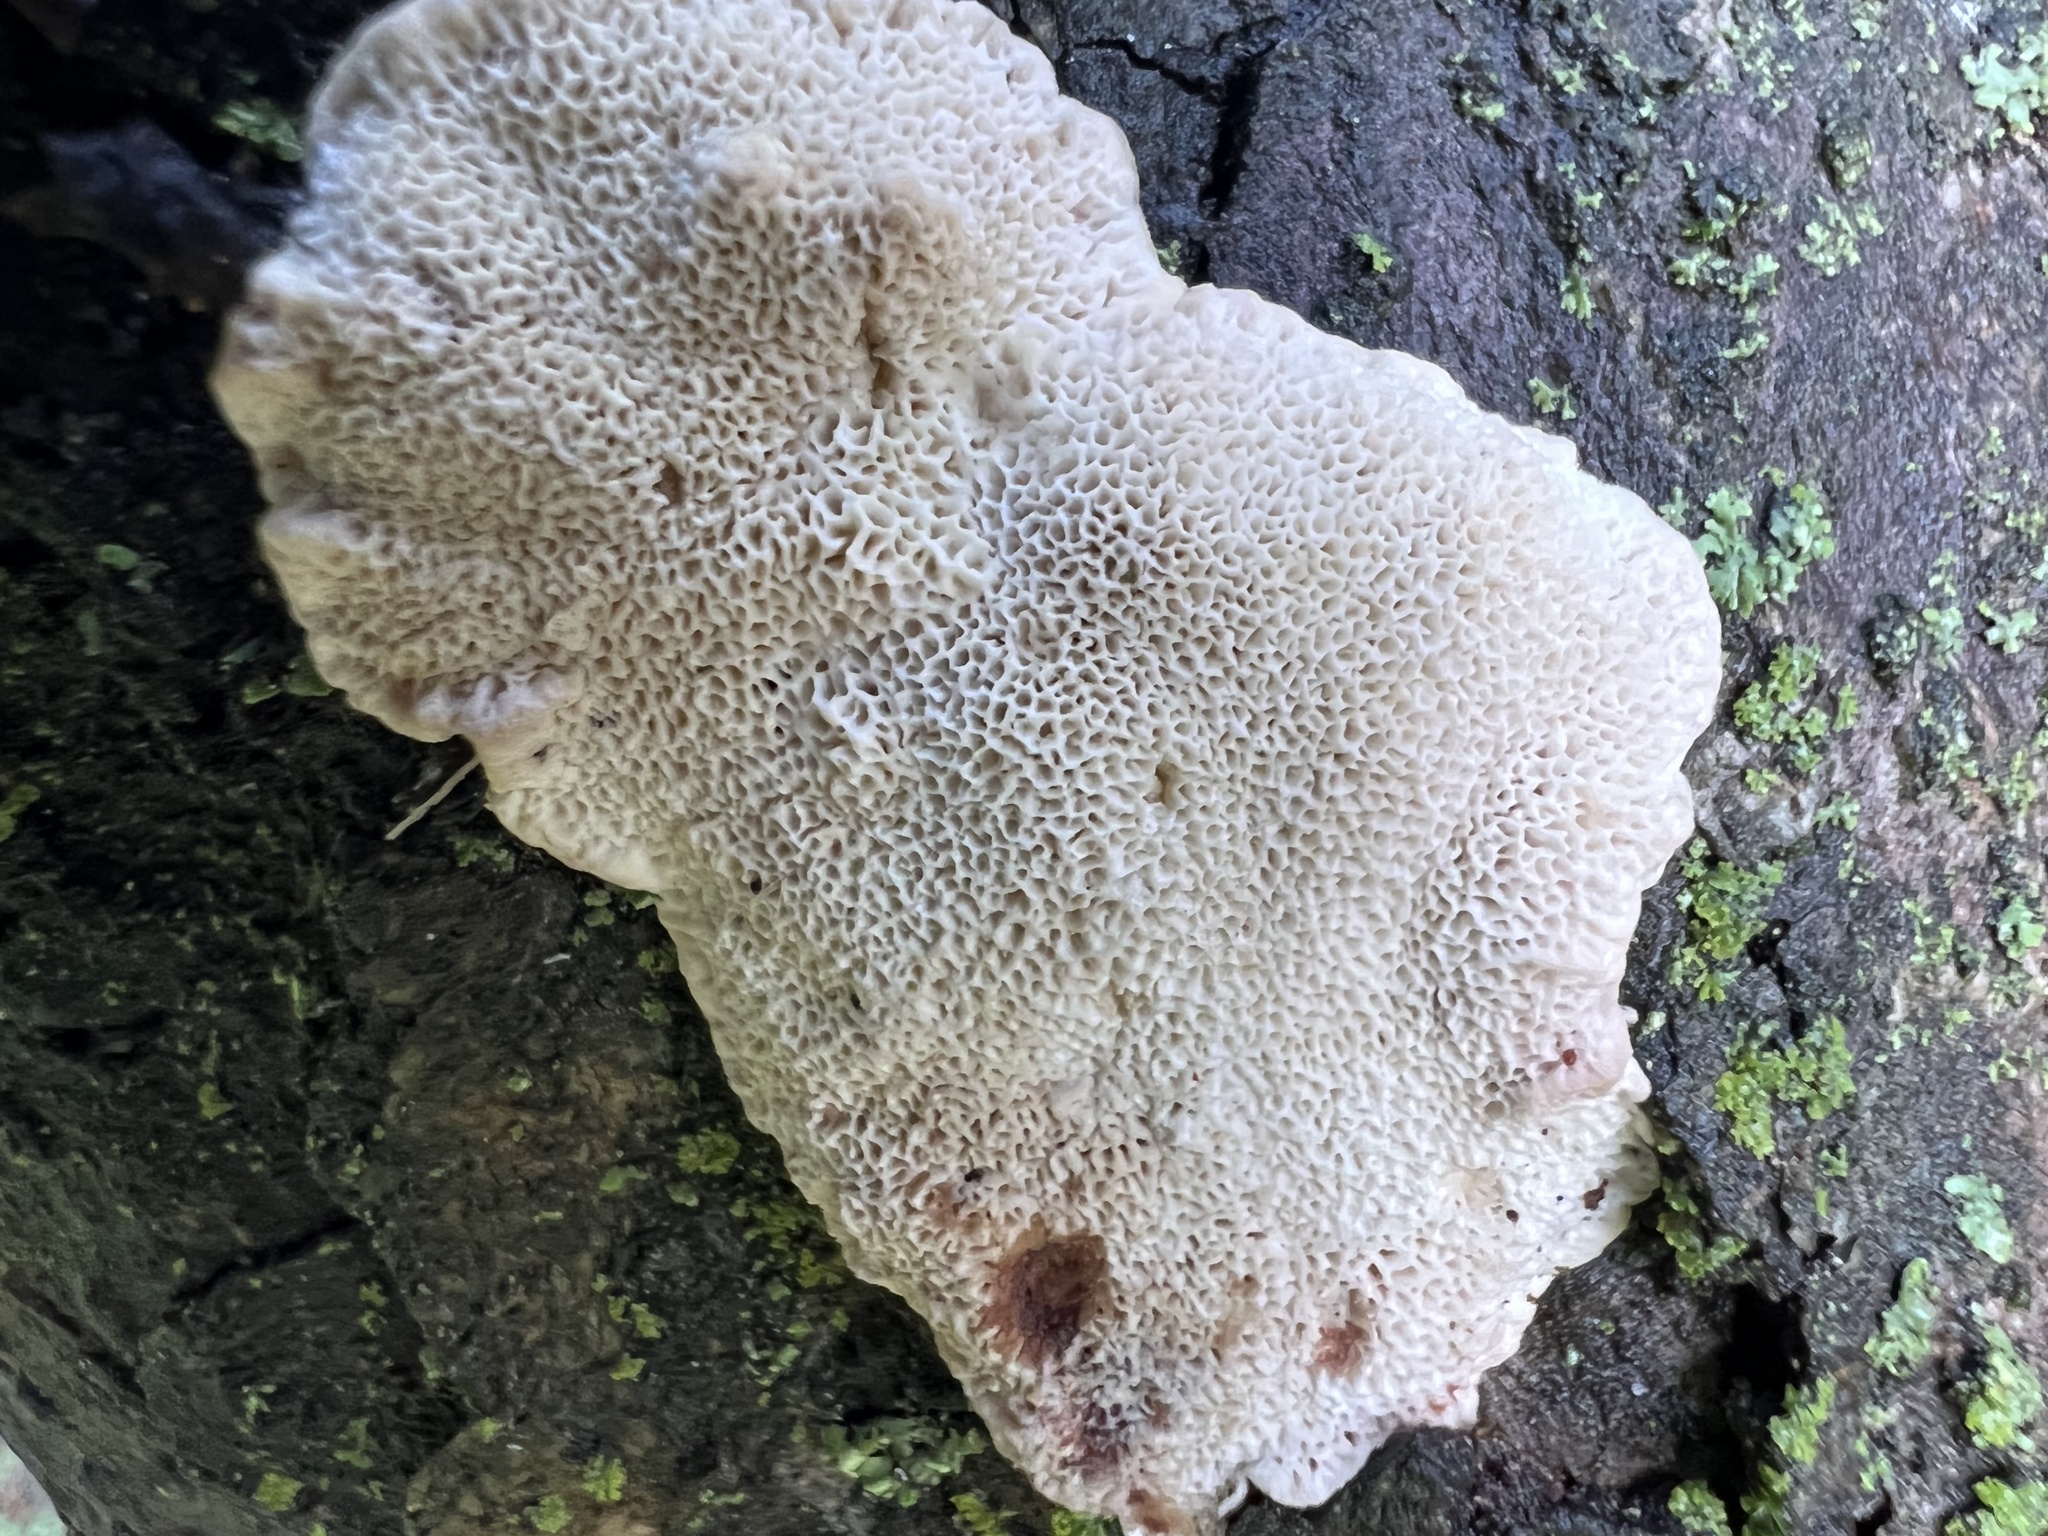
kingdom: Fungi
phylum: Basidiomycota
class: Agaricomycetes
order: Polyporales
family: Podoscyphaceae
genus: Abortiporus
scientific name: Abortiporus biennis
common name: Blushing rosette
